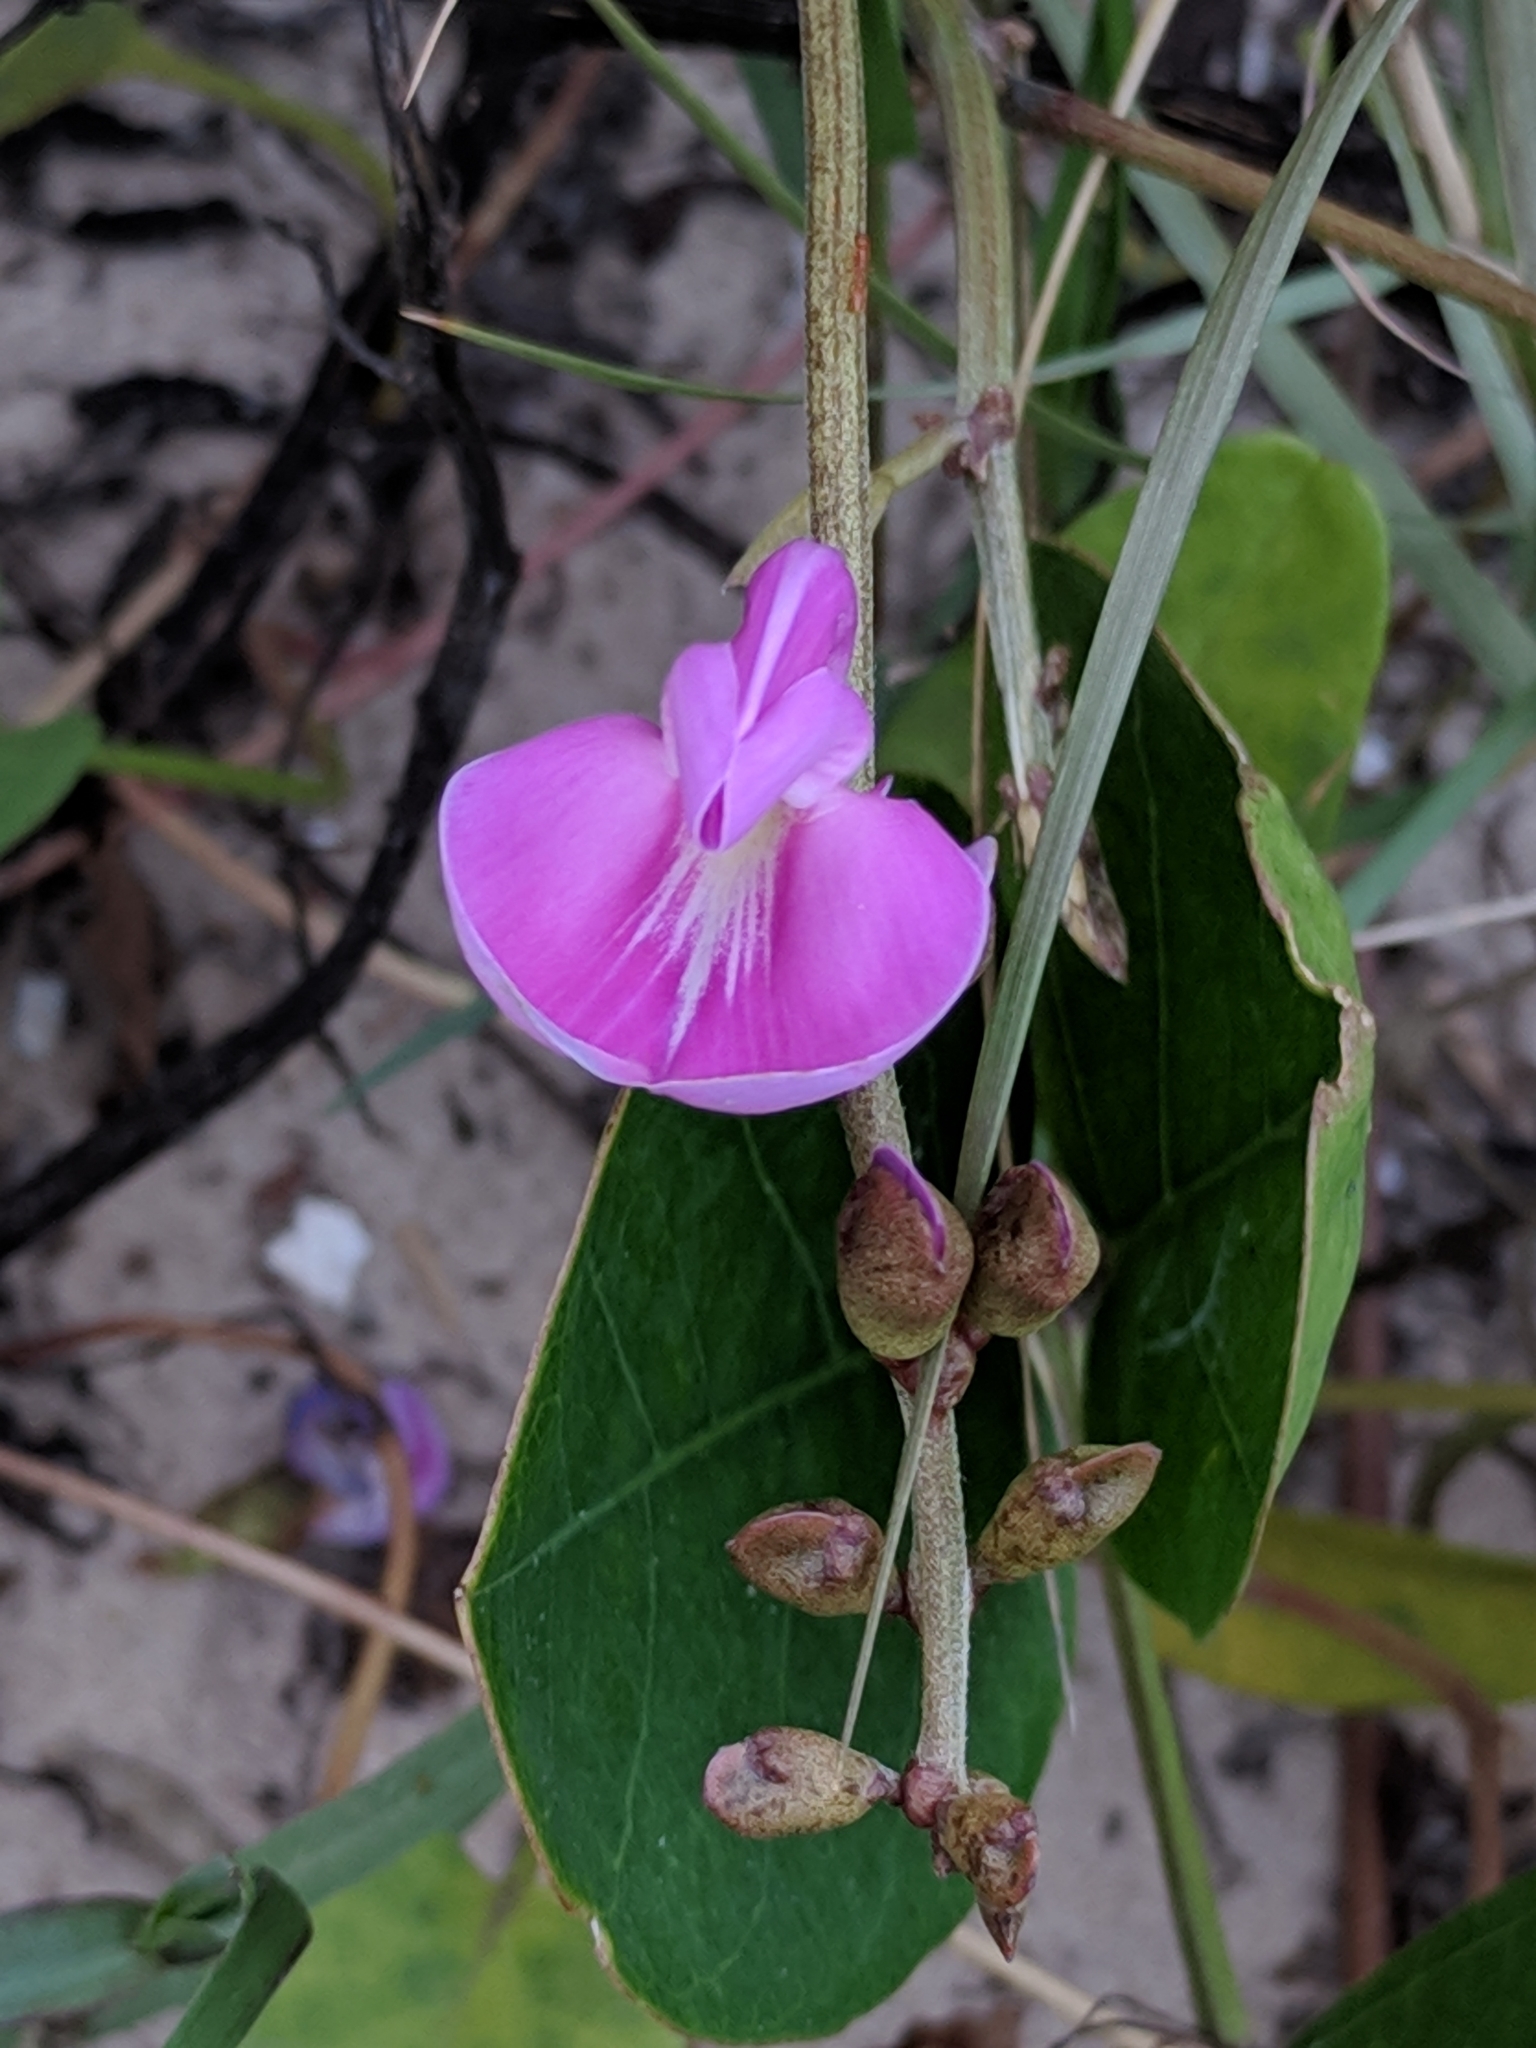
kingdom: Plantae
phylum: Tracheophyta
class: Magnoliopsida
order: Fabales
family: Fabaceae
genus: Canavalia
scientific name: Canavalia rosea
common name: Beach-bean
